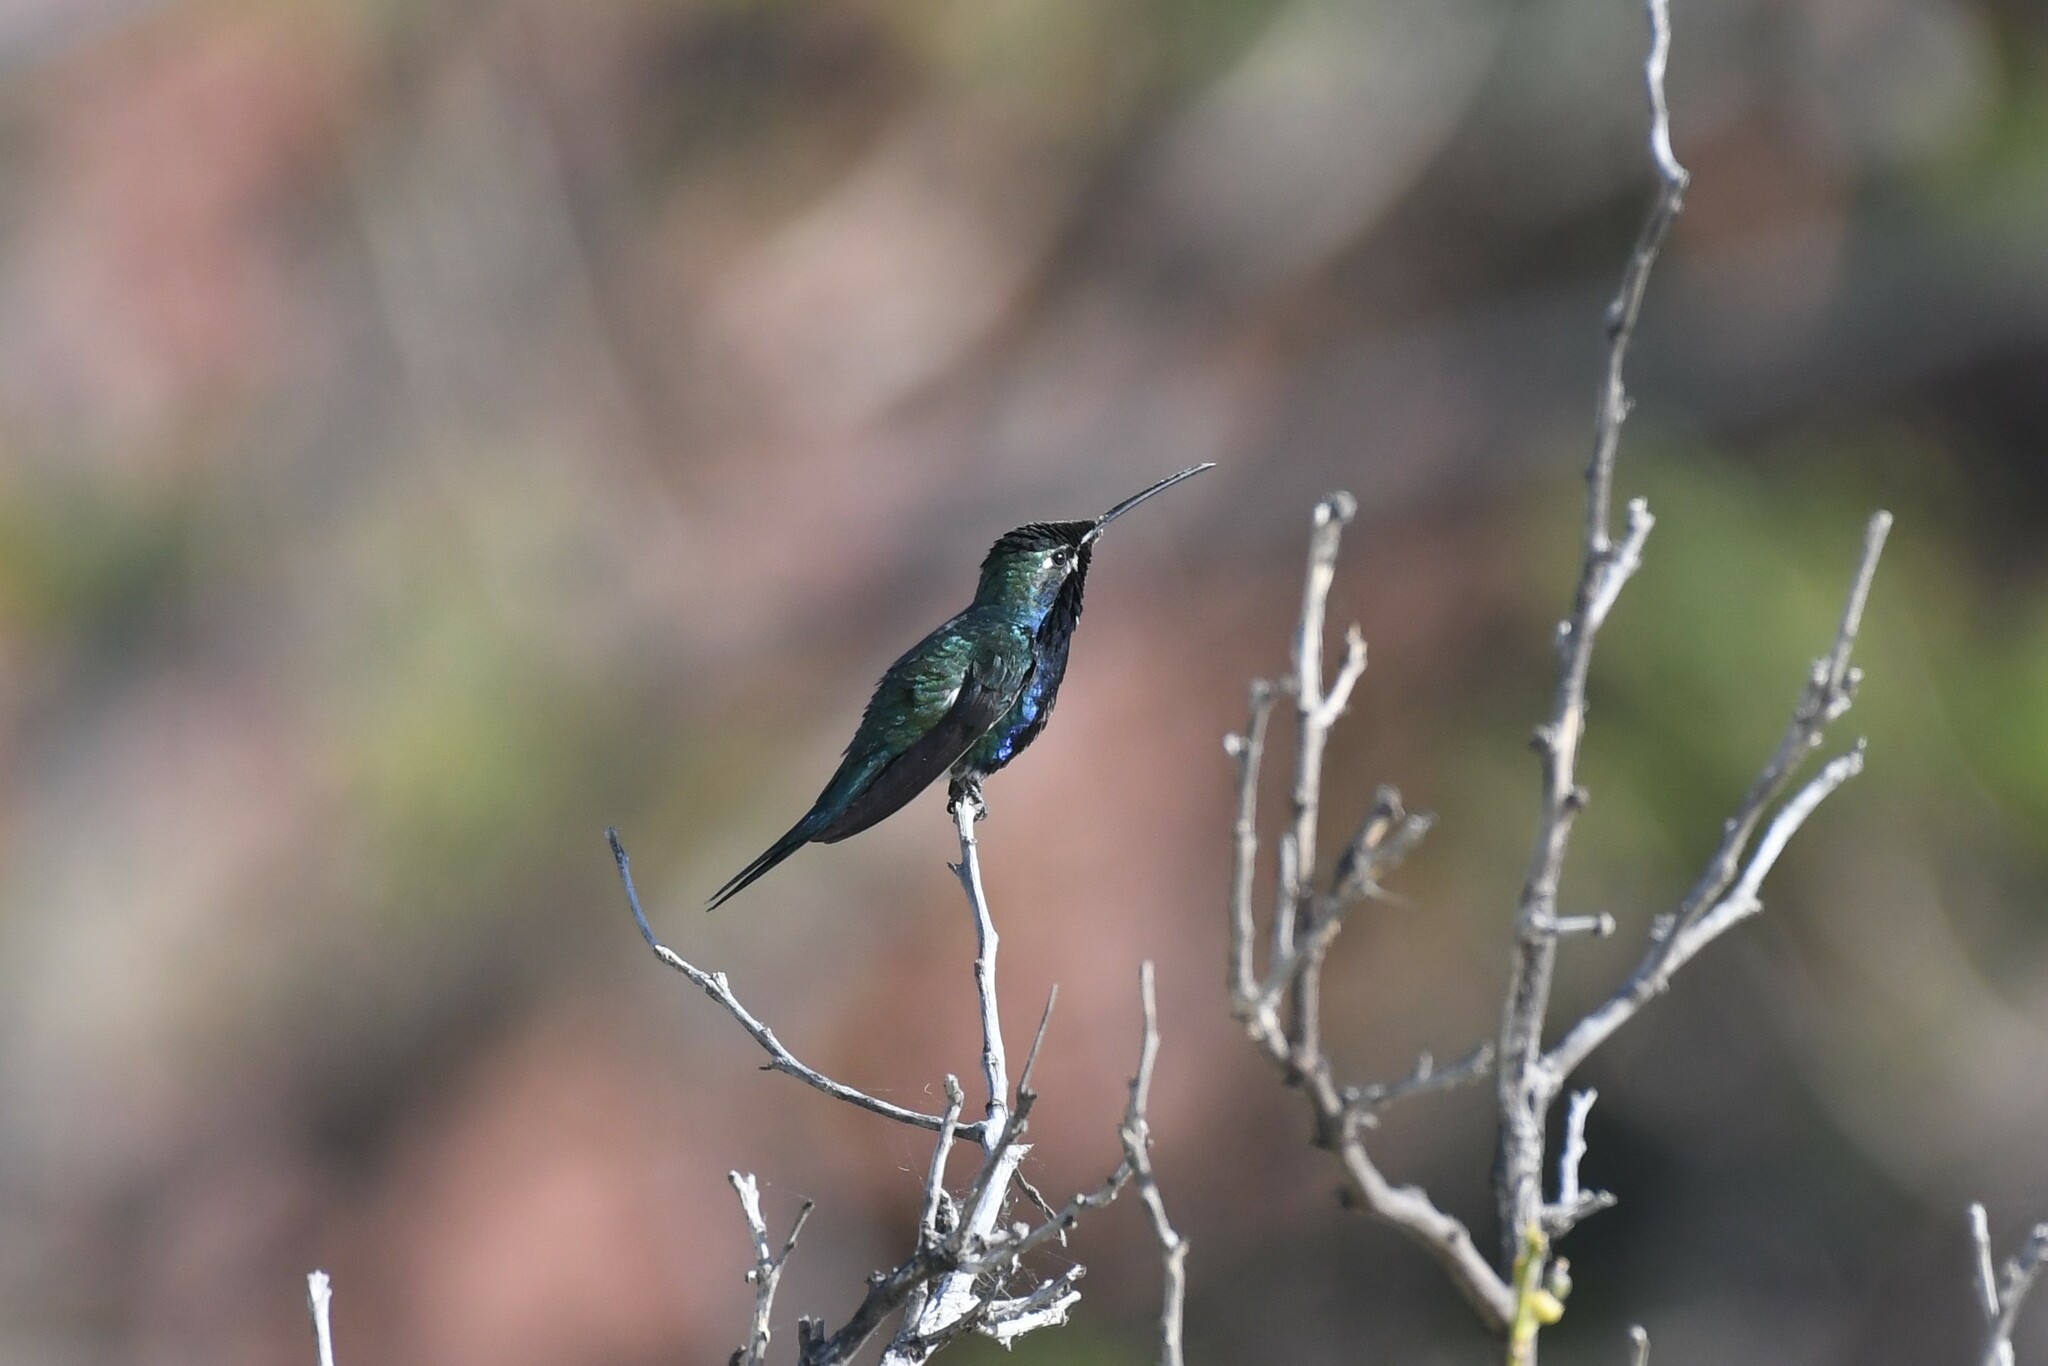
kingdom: Animalia
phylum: Chordata
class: Aves
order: Apodiformes
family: Trochilidae
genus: Heliomaster
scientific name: Heliomaster furcifer
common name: Blue-tufted starthroat
